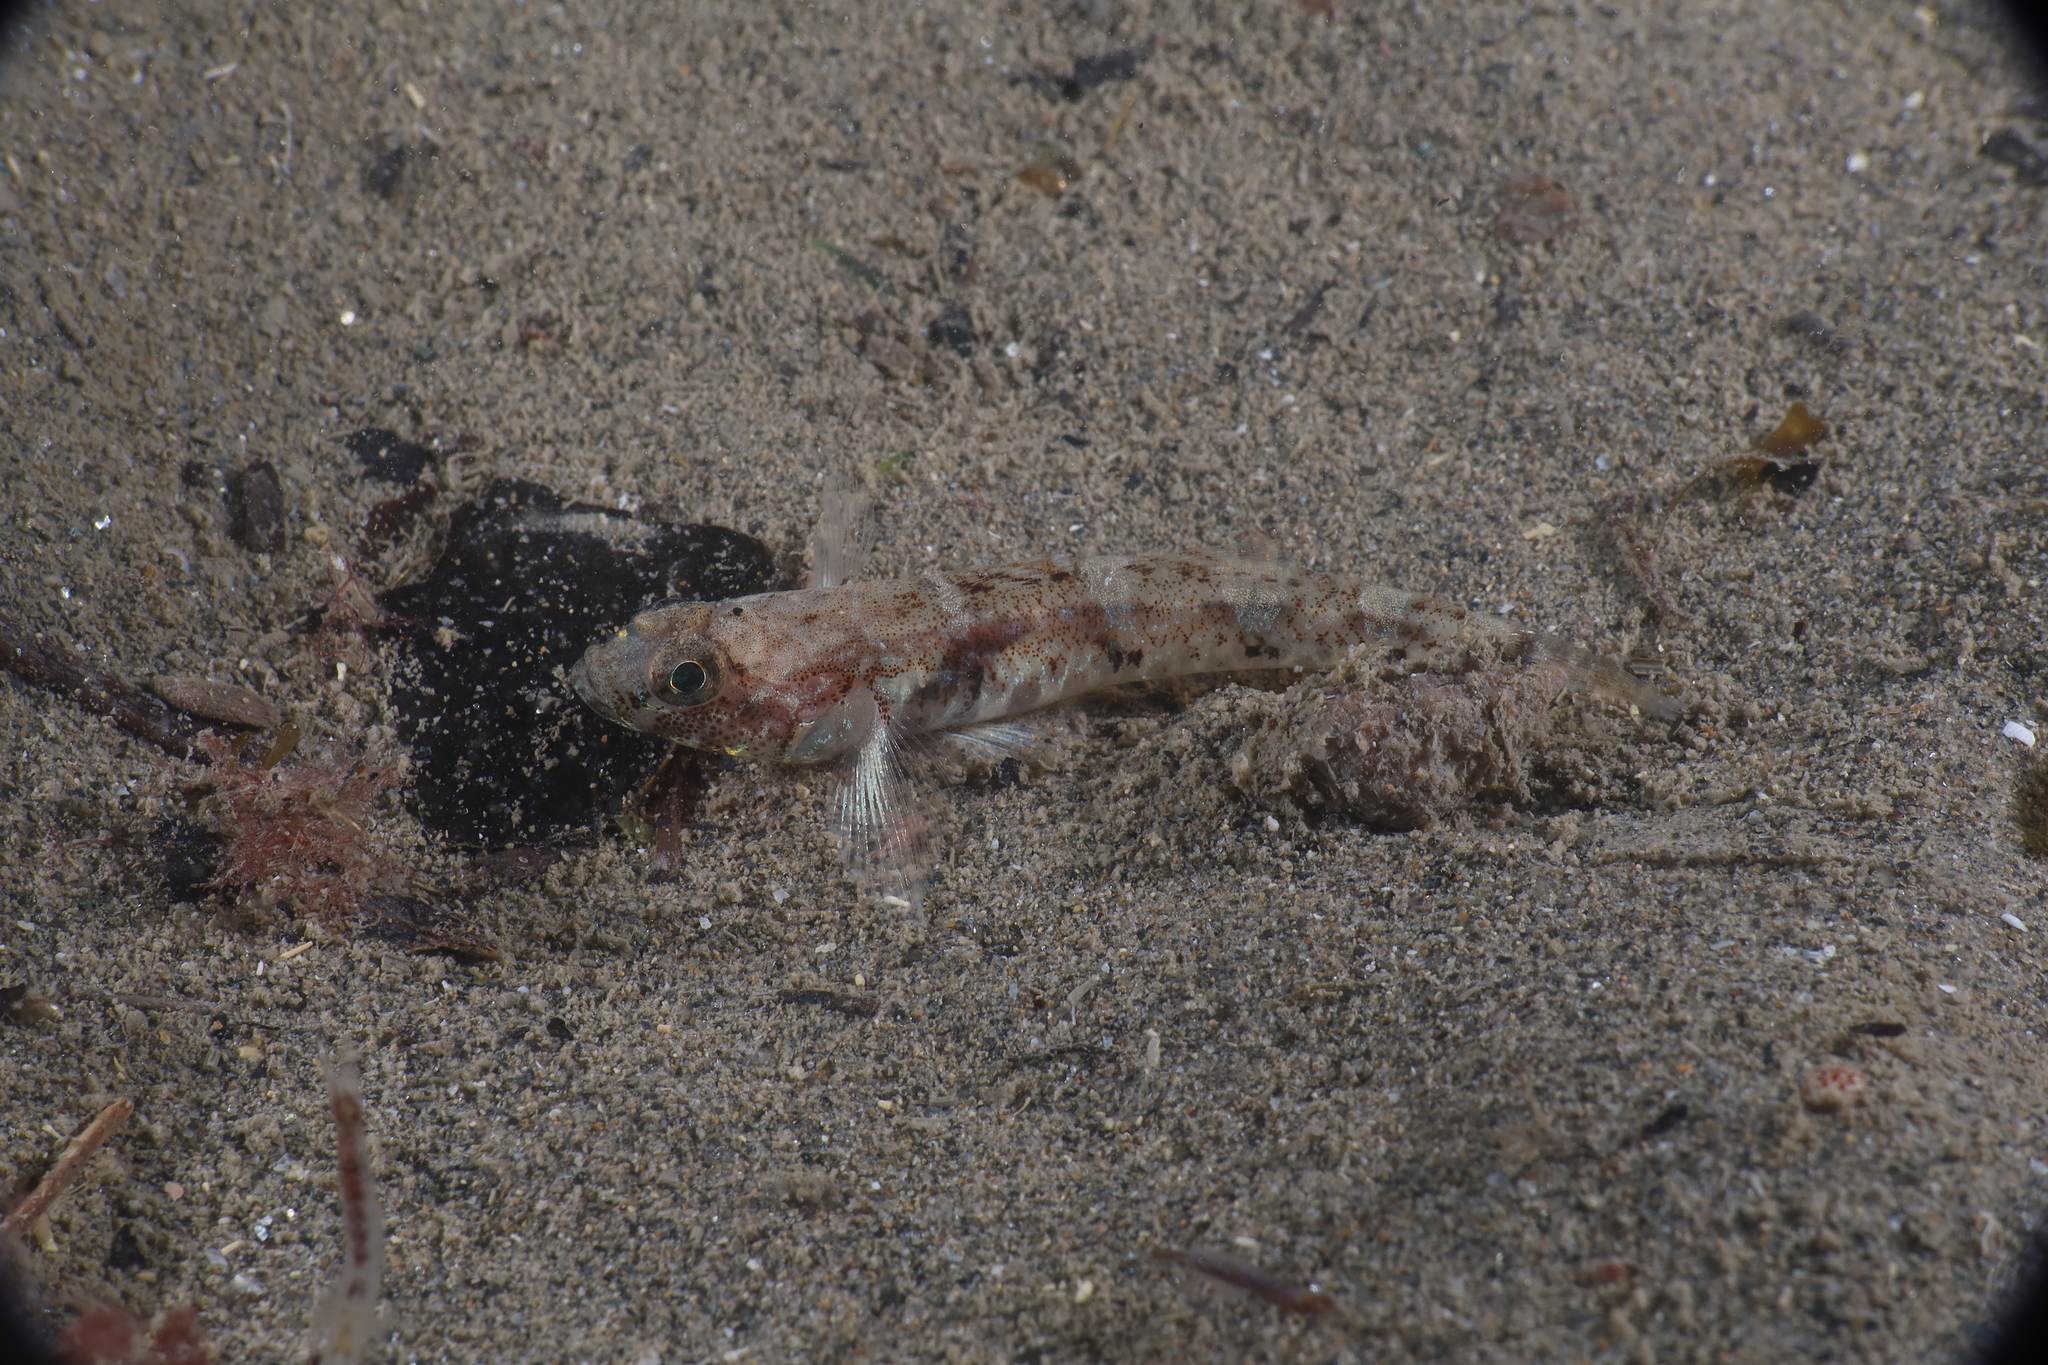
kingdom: Animalia
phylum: Chordata
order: Perciformes
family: Gobiidae
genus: Pomatoschistus
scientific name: Pomatoschistus pictus
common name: Painted goby
